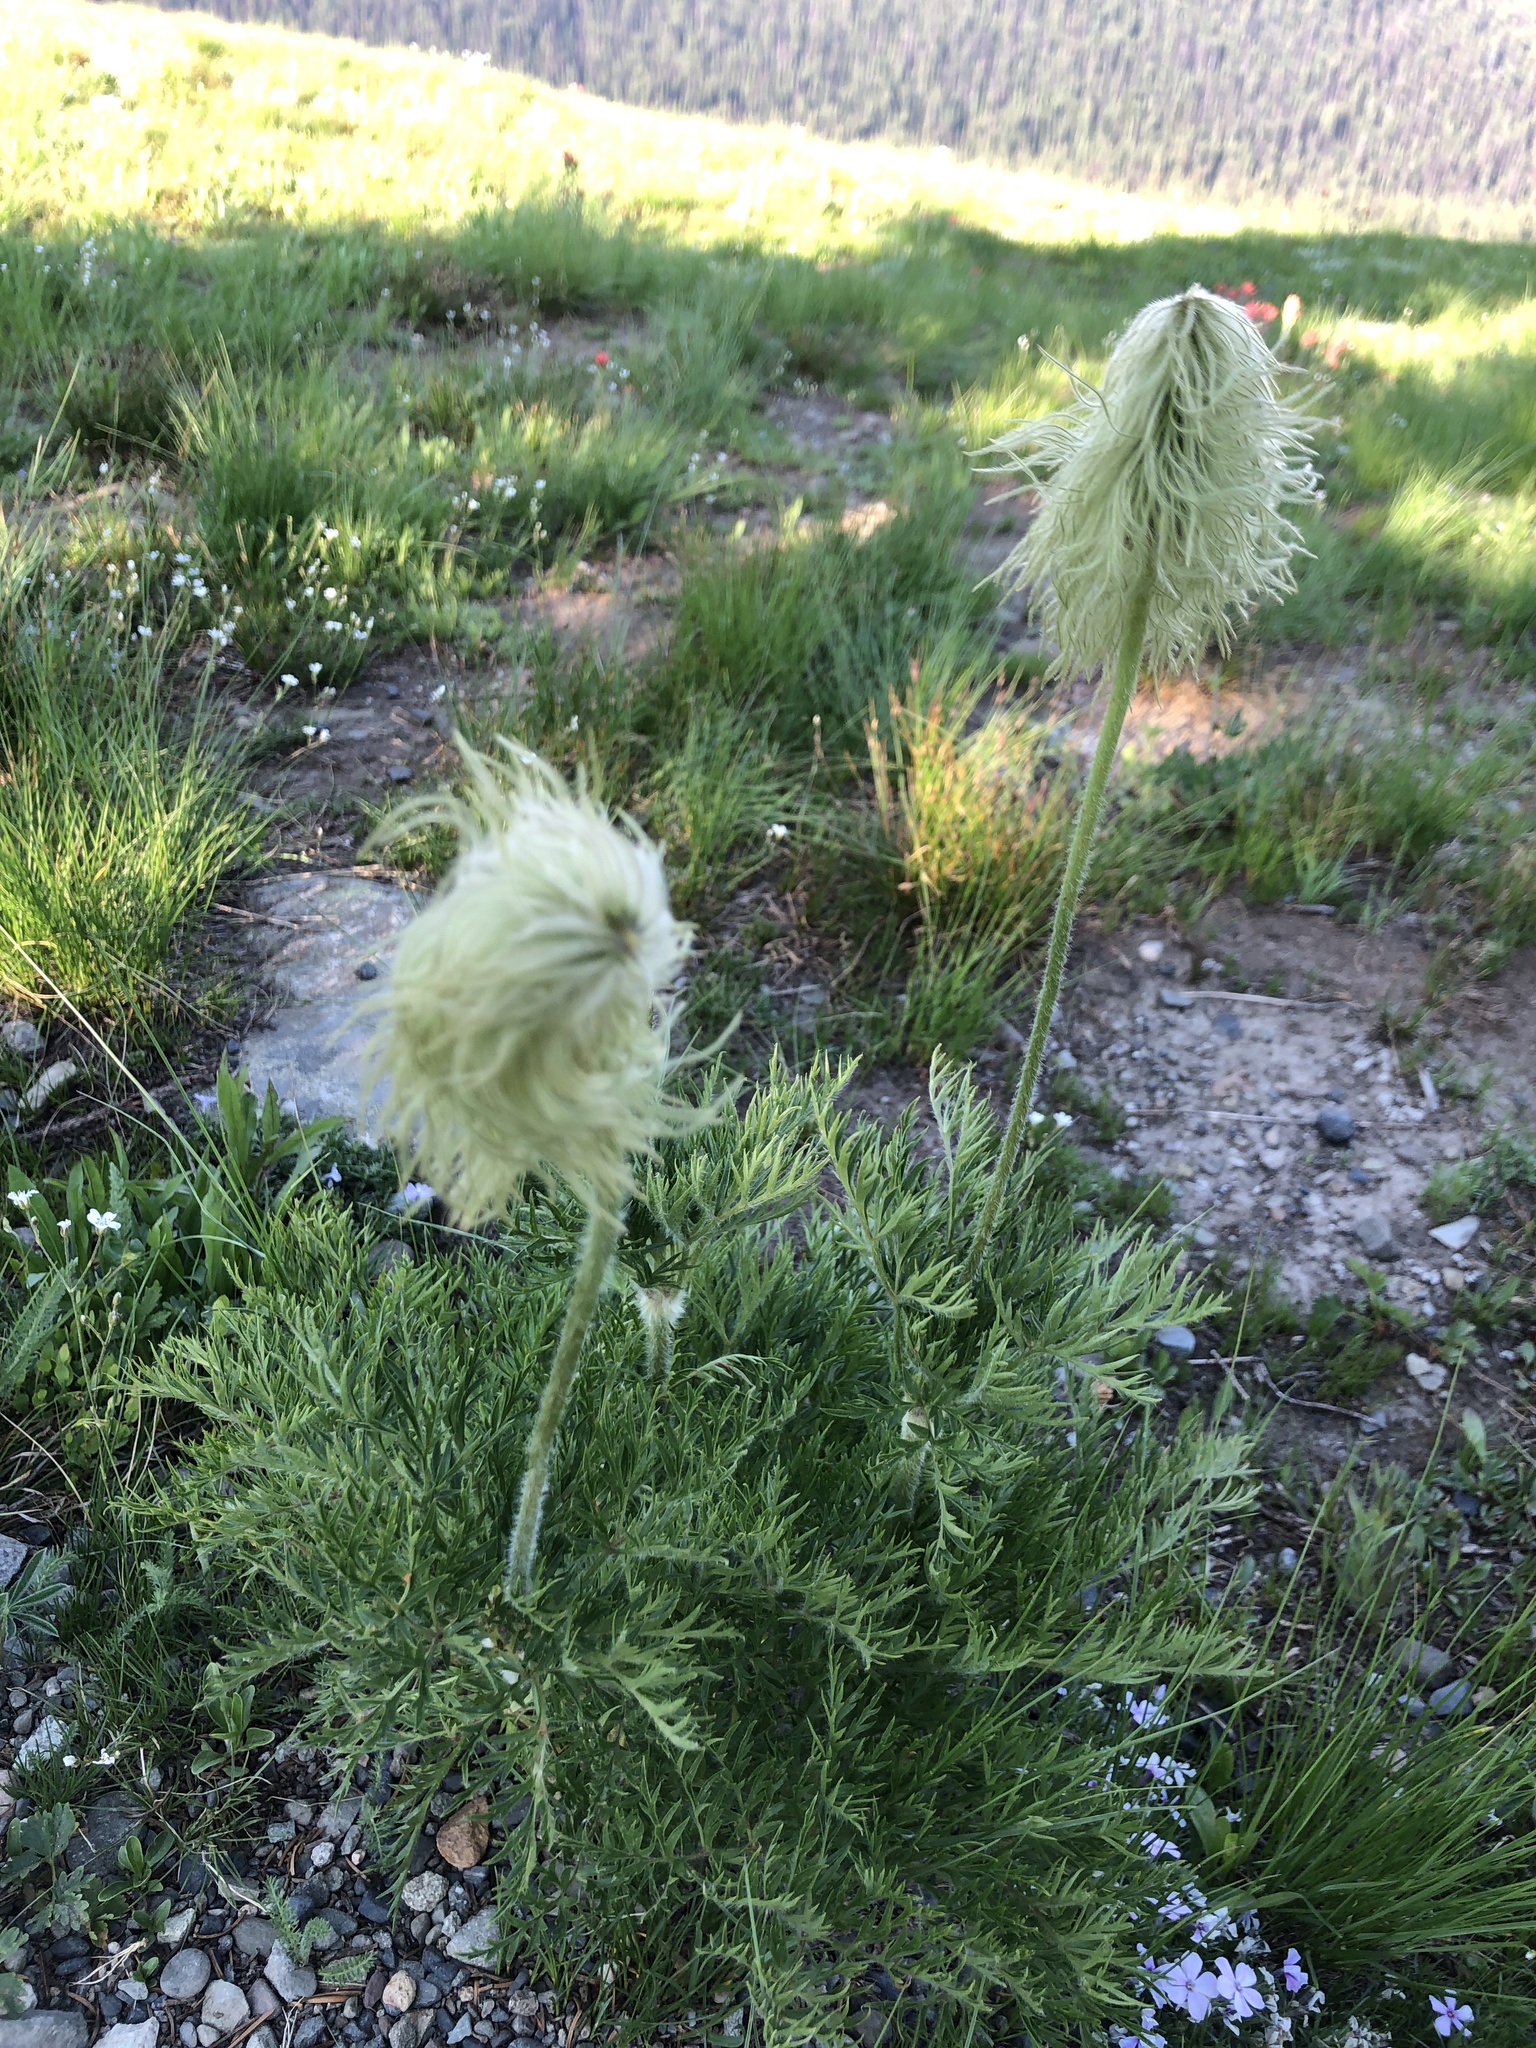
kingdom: Plantae
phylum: Tracheophyta
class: Magnoliopsida
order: Ranunculales
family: Ranunculaceae
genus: Pulsatilla
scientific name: Pulsatilla occidentalis
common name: Mountain pasqueflower
